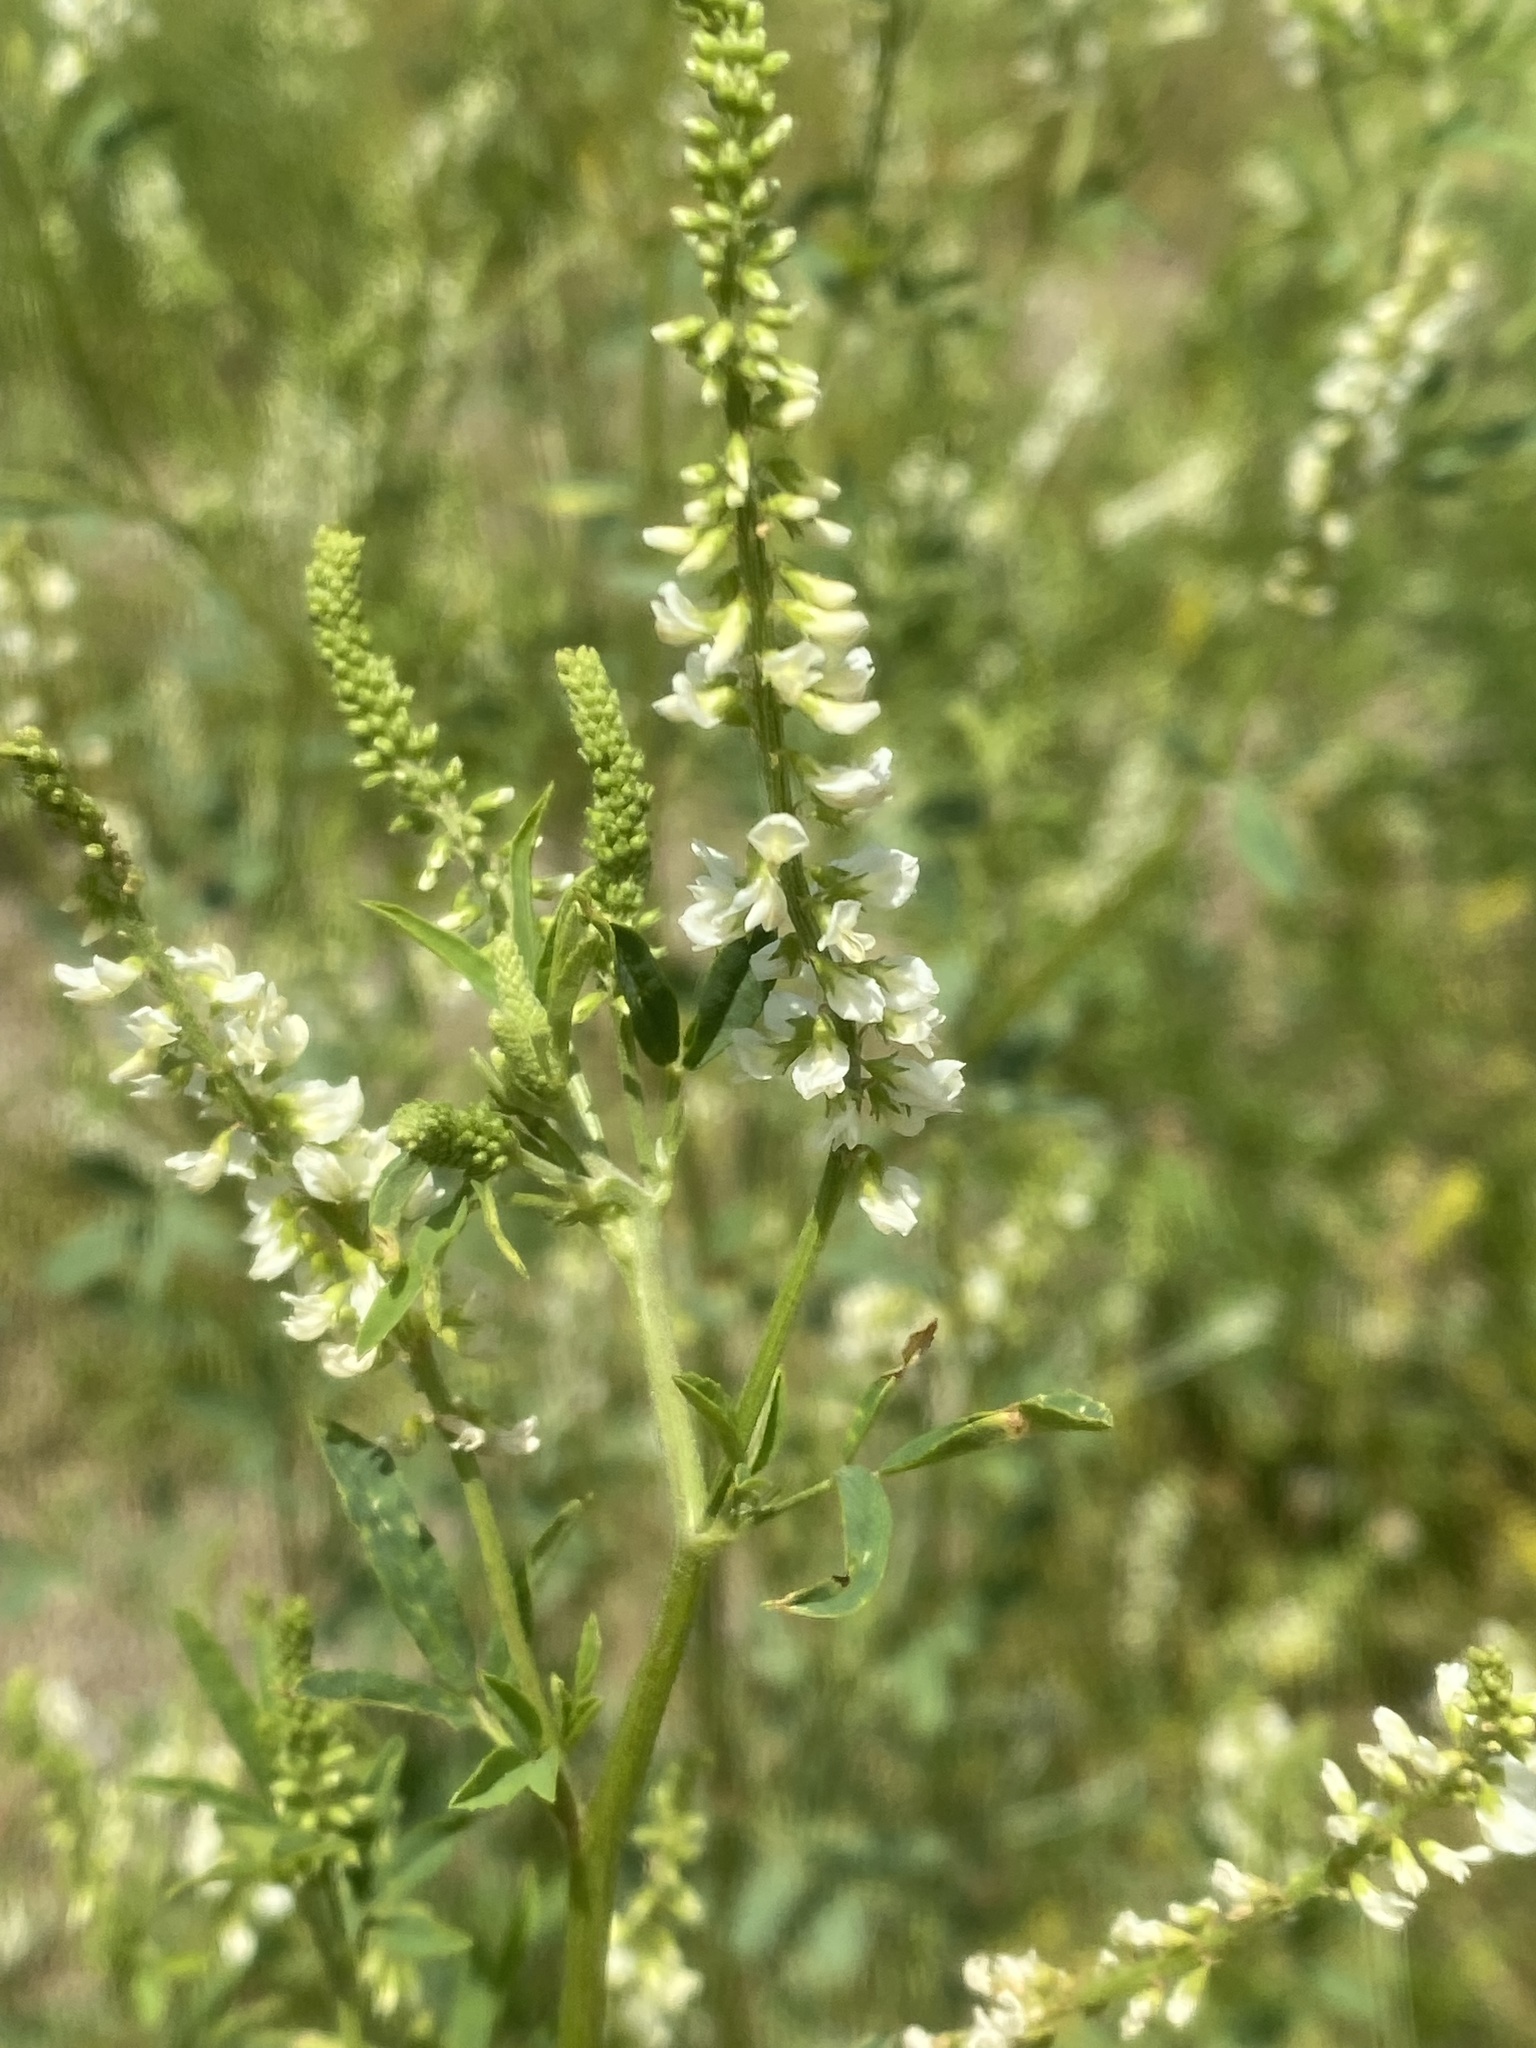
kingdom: Plantae
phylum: Tracheophyta
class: Magnoliopsida
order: Fabales
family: Fabaceae
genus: Melilotus
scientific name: Melilotus albus
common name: White melilot
